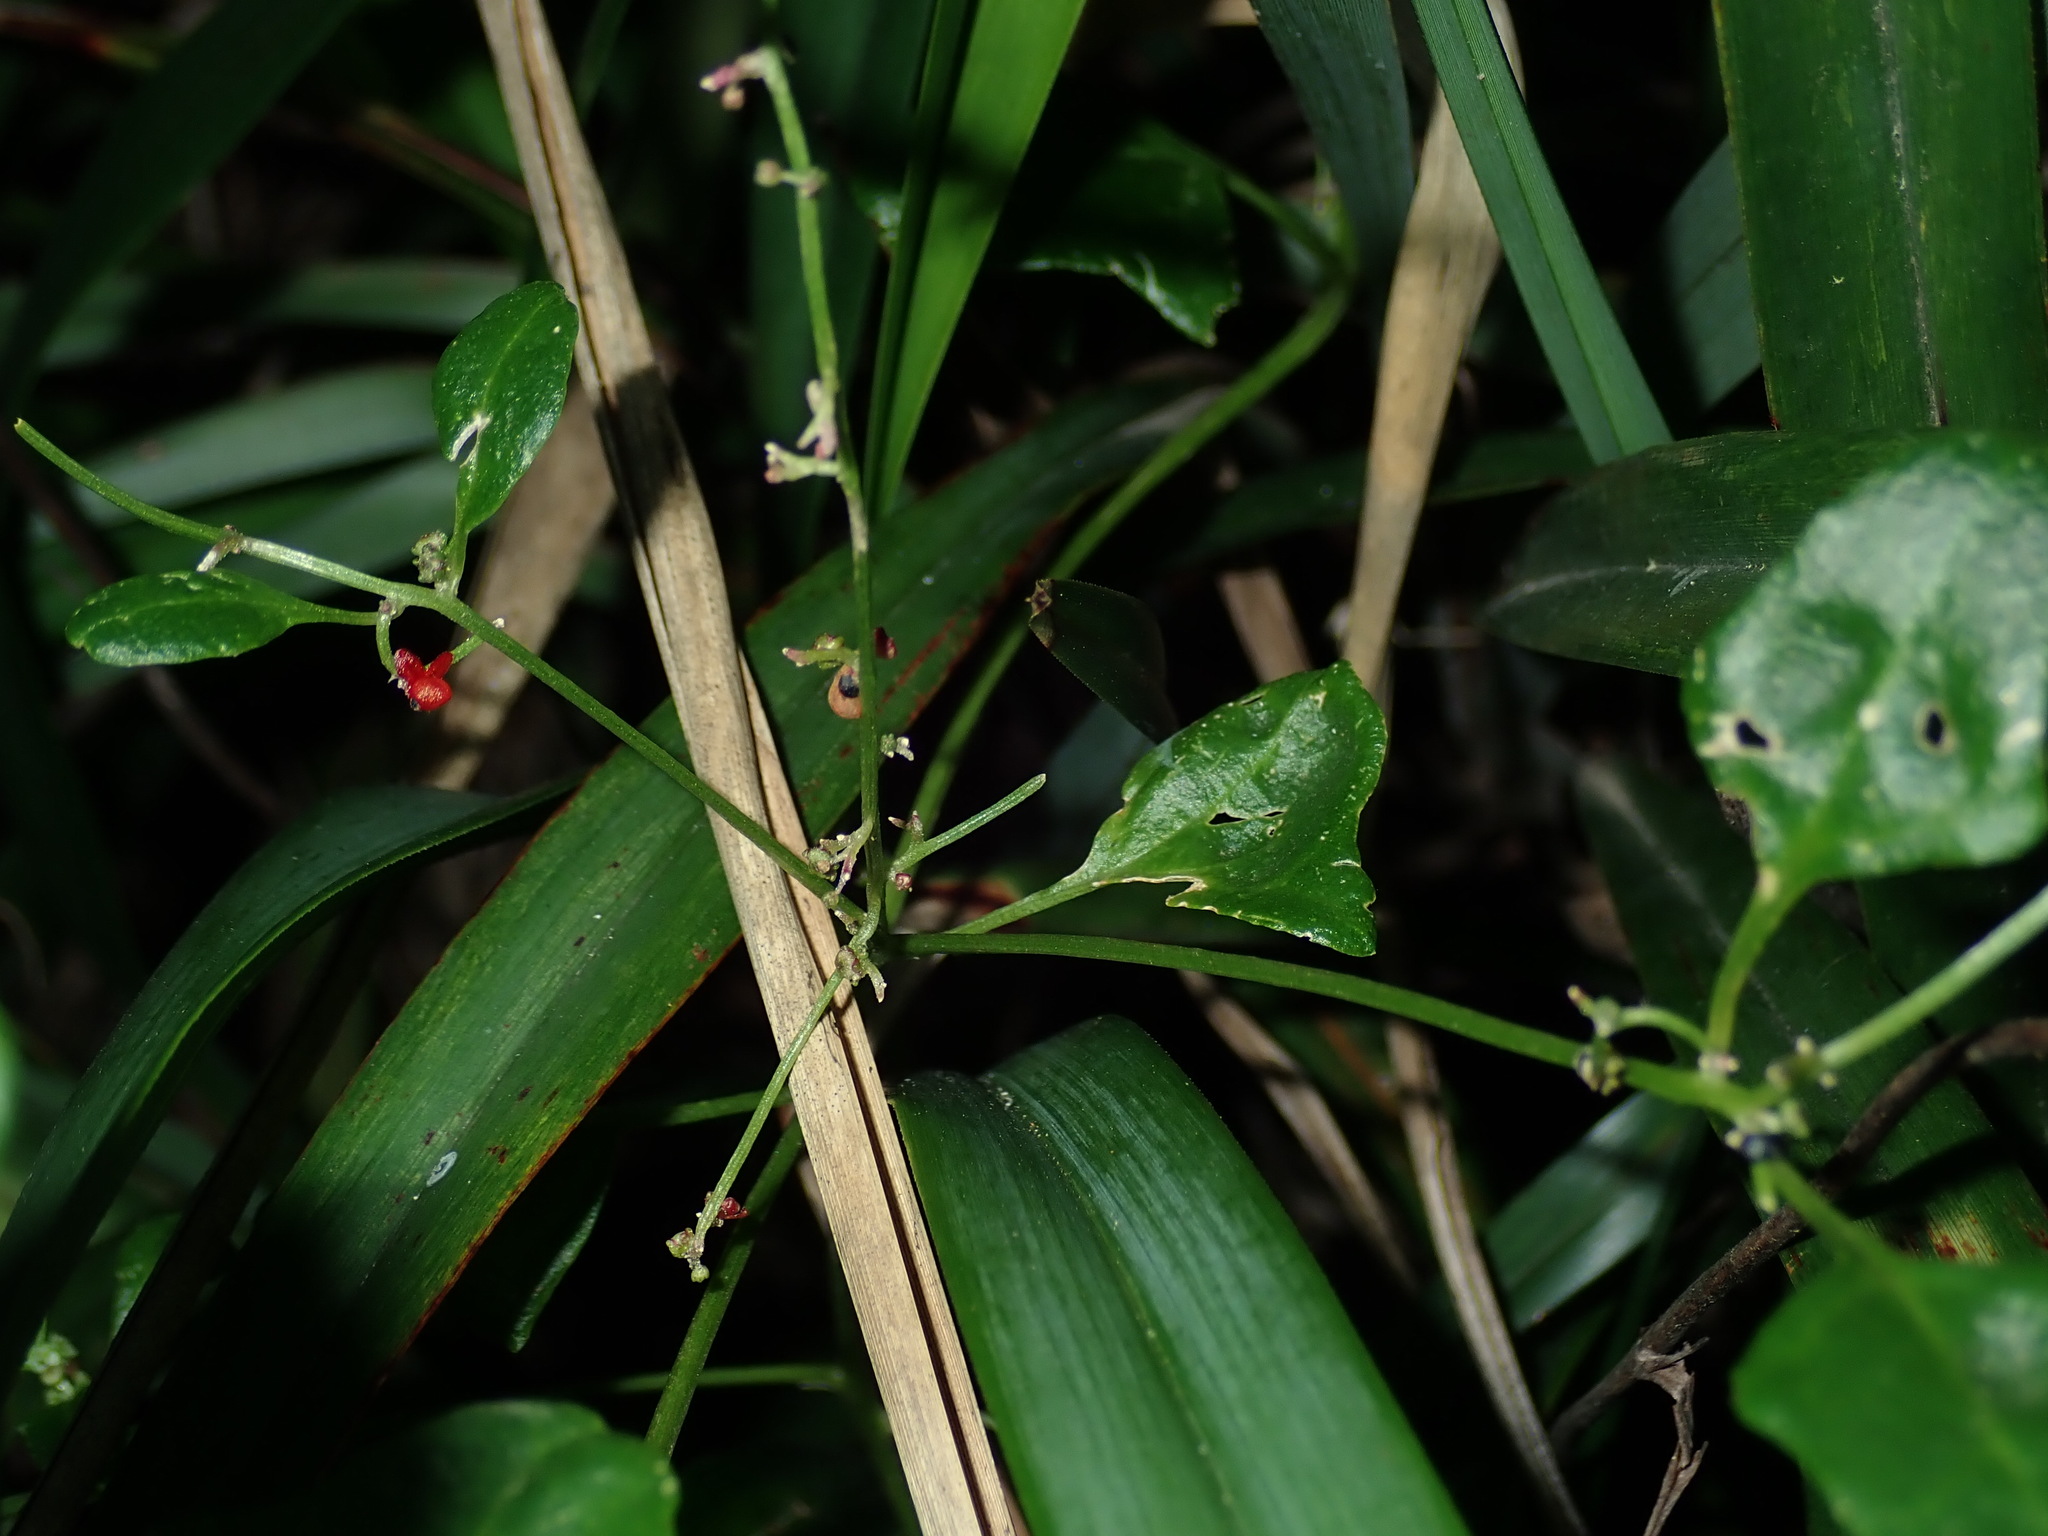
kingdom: Plantae
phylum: Tracheophyta
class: Magnoliopsida
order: Caryophyllales
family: Amaranthaceae
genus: Chenopodium
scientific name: Chenopodium robertianum
